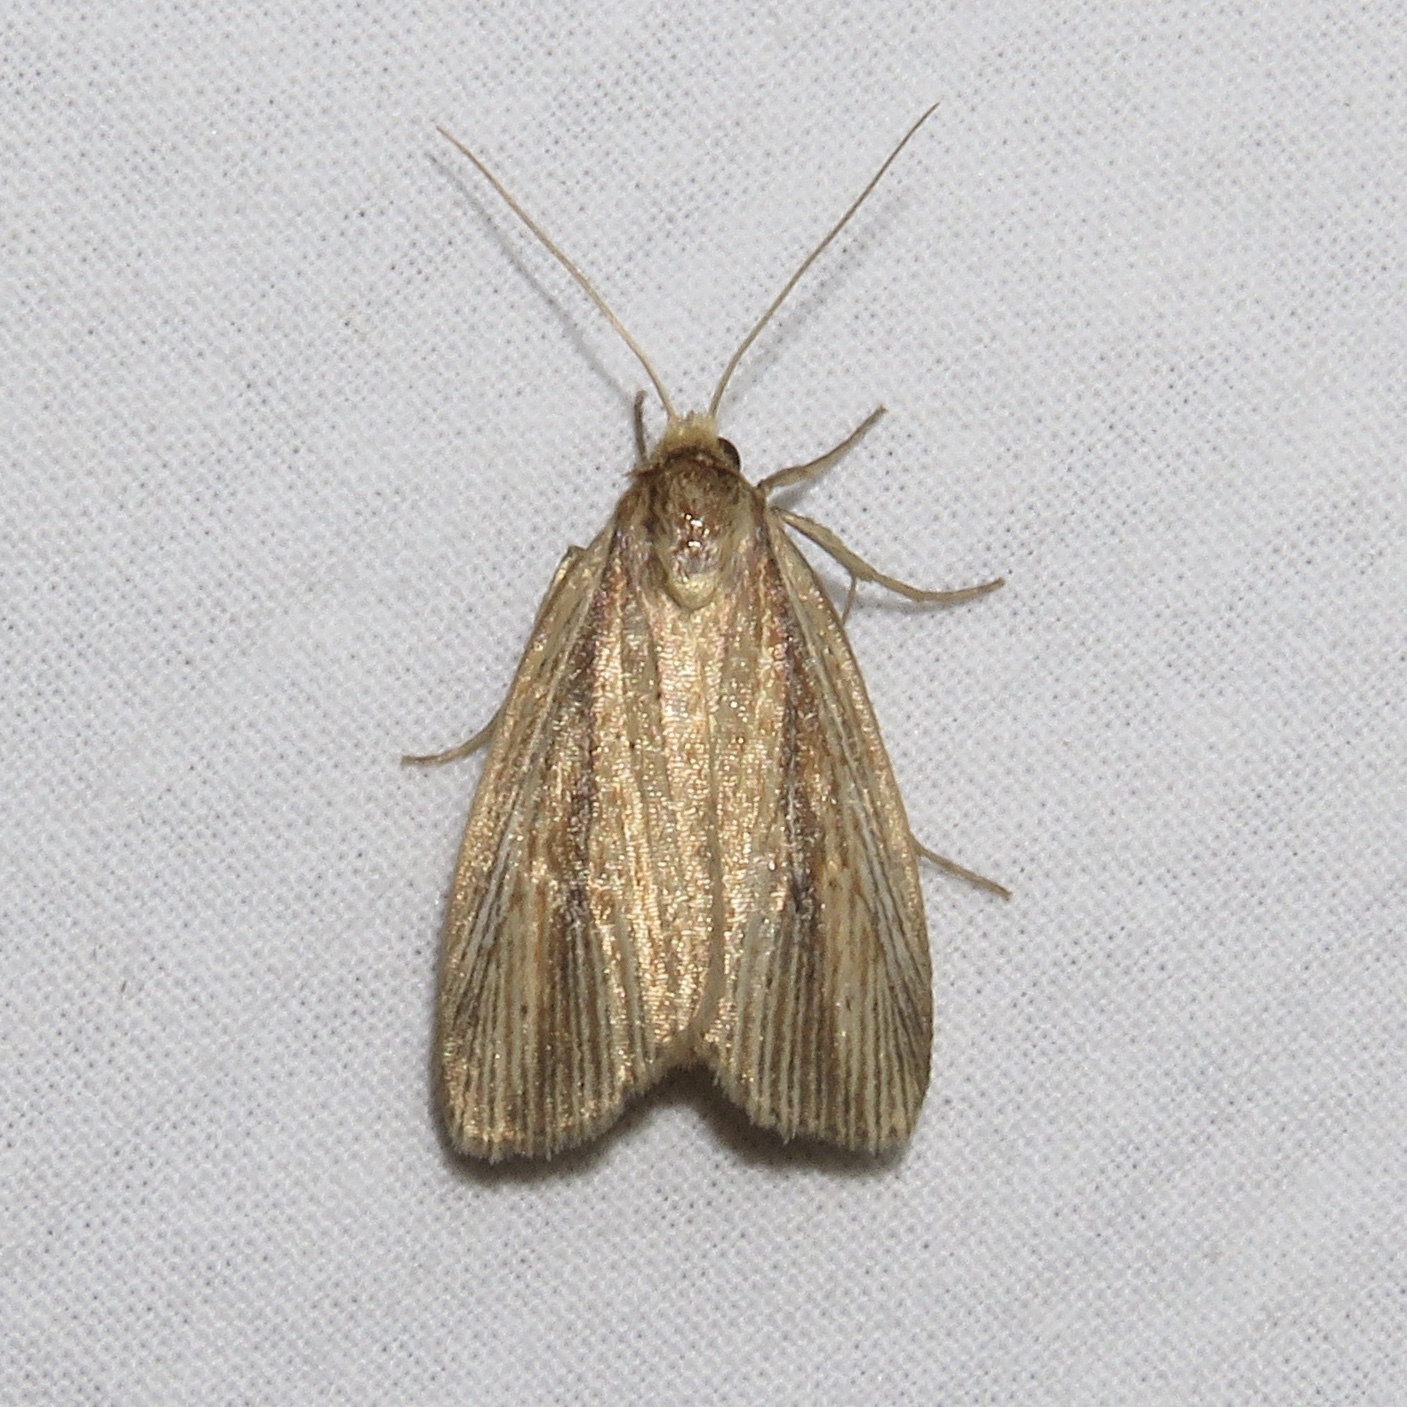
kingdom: Animalia
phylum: Arthropoda
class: Insecta
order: Lepidoptera
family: Noctuidae
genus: Photedes
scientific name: Photedes defecta
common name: Narrow-winged borer moth
